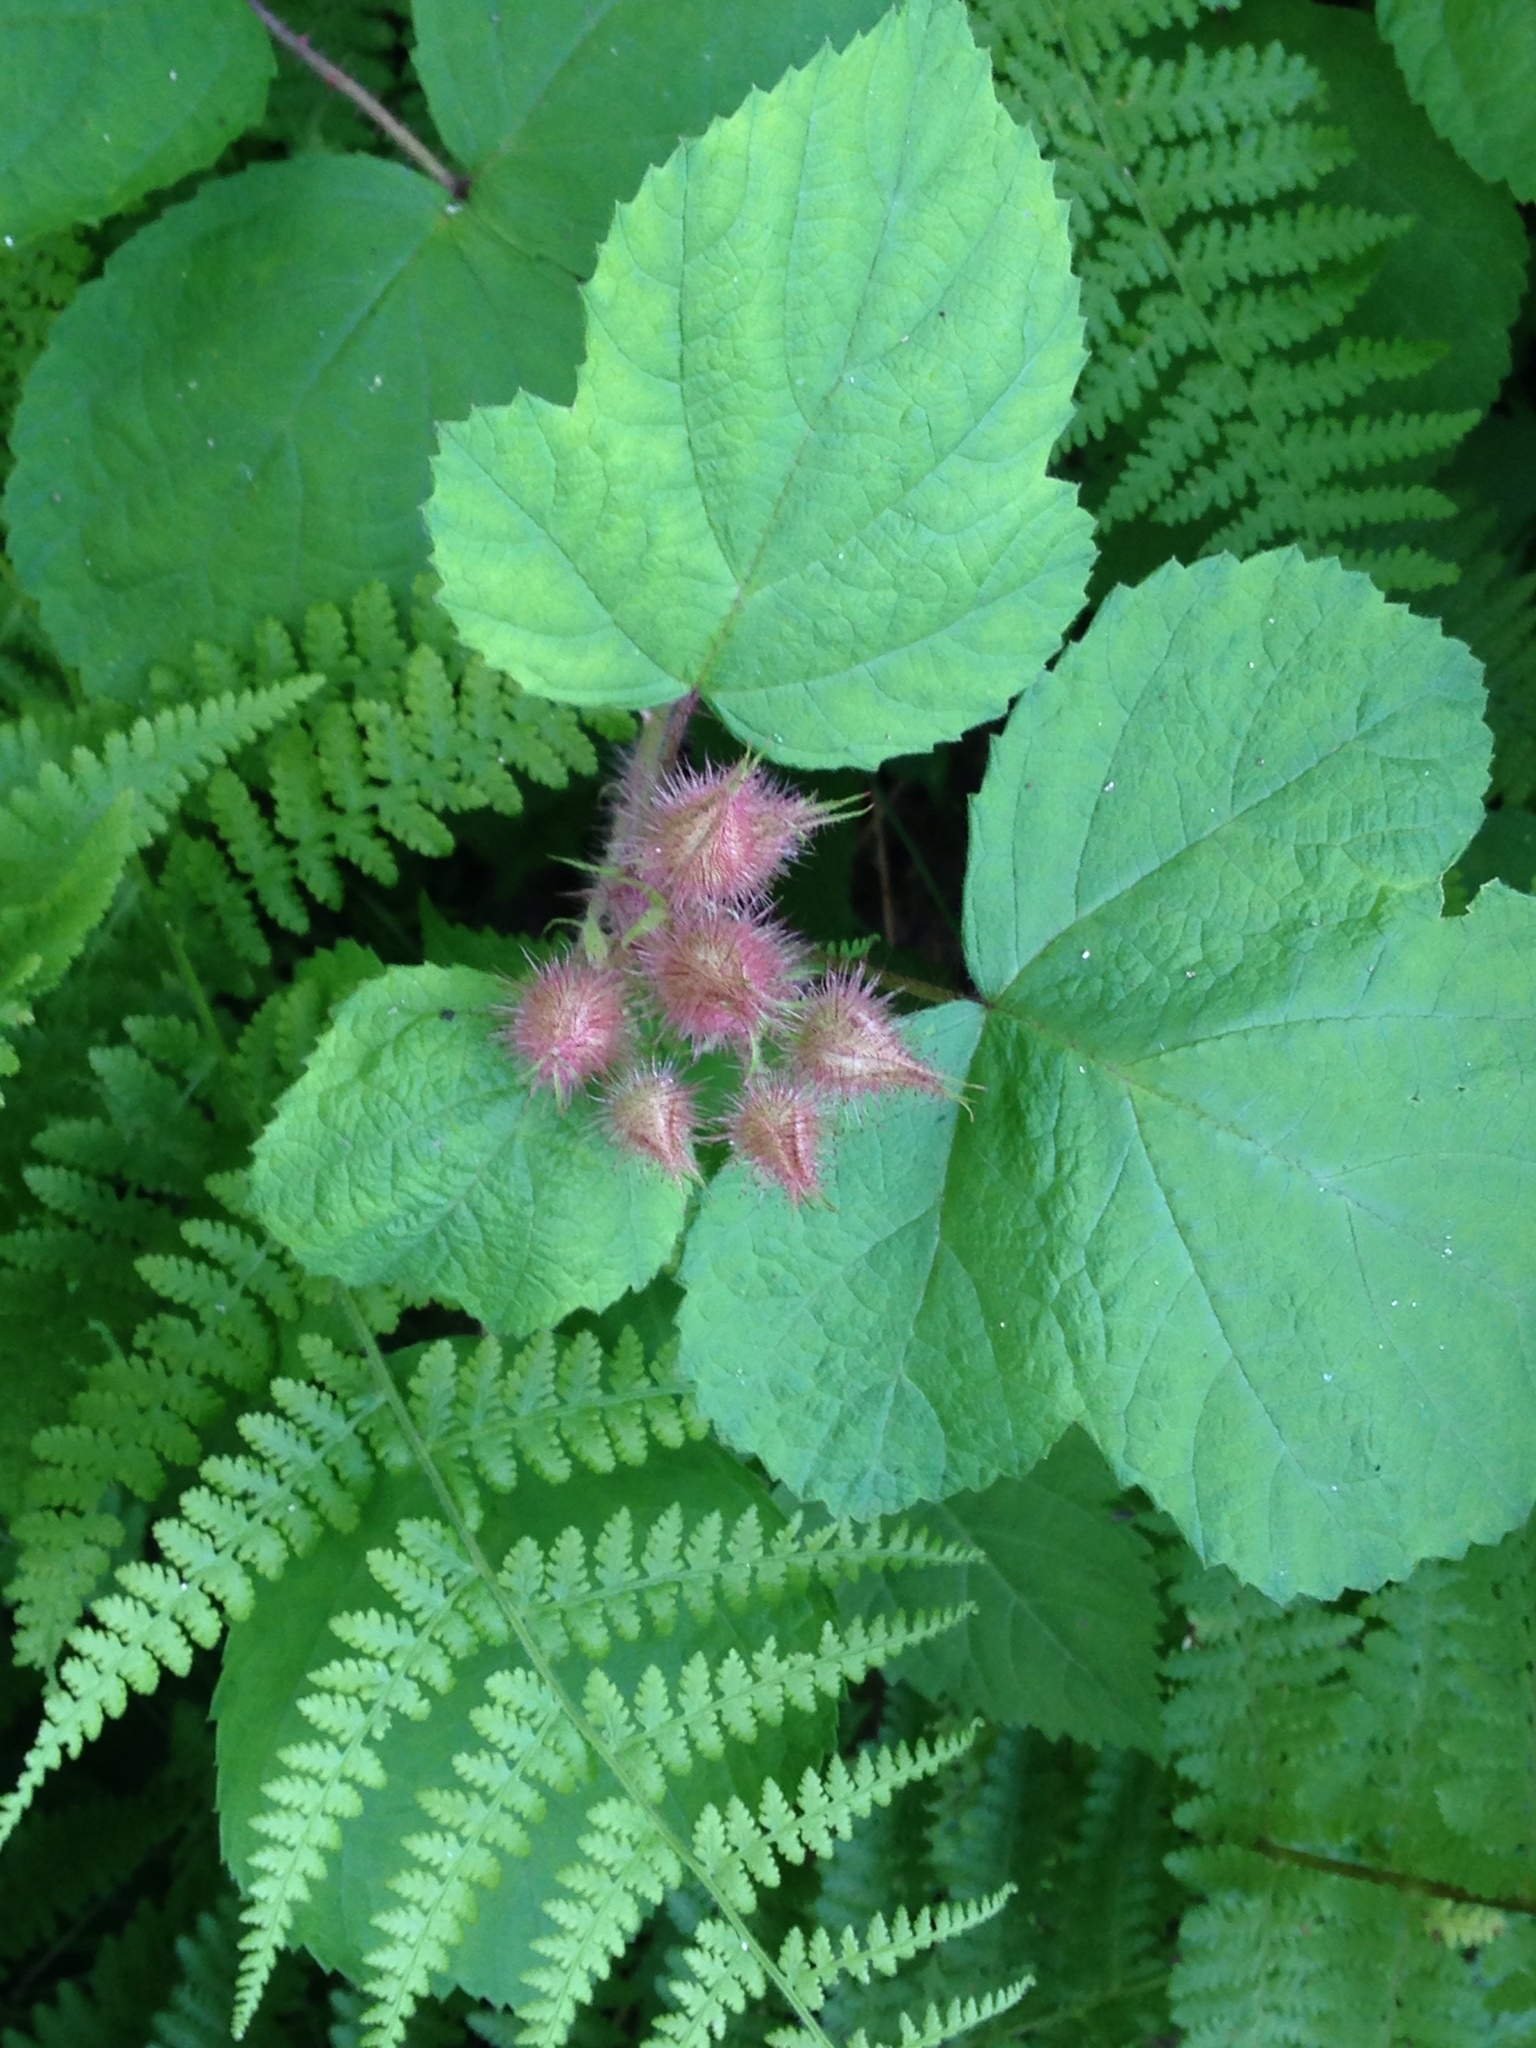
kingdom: Plantae
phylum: Tracheophyta
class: Magnoliopsida
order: Rosales
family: Rosaceae
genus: Rubus
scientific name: Rubus phoenicolasius
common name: Japanese wineberry
